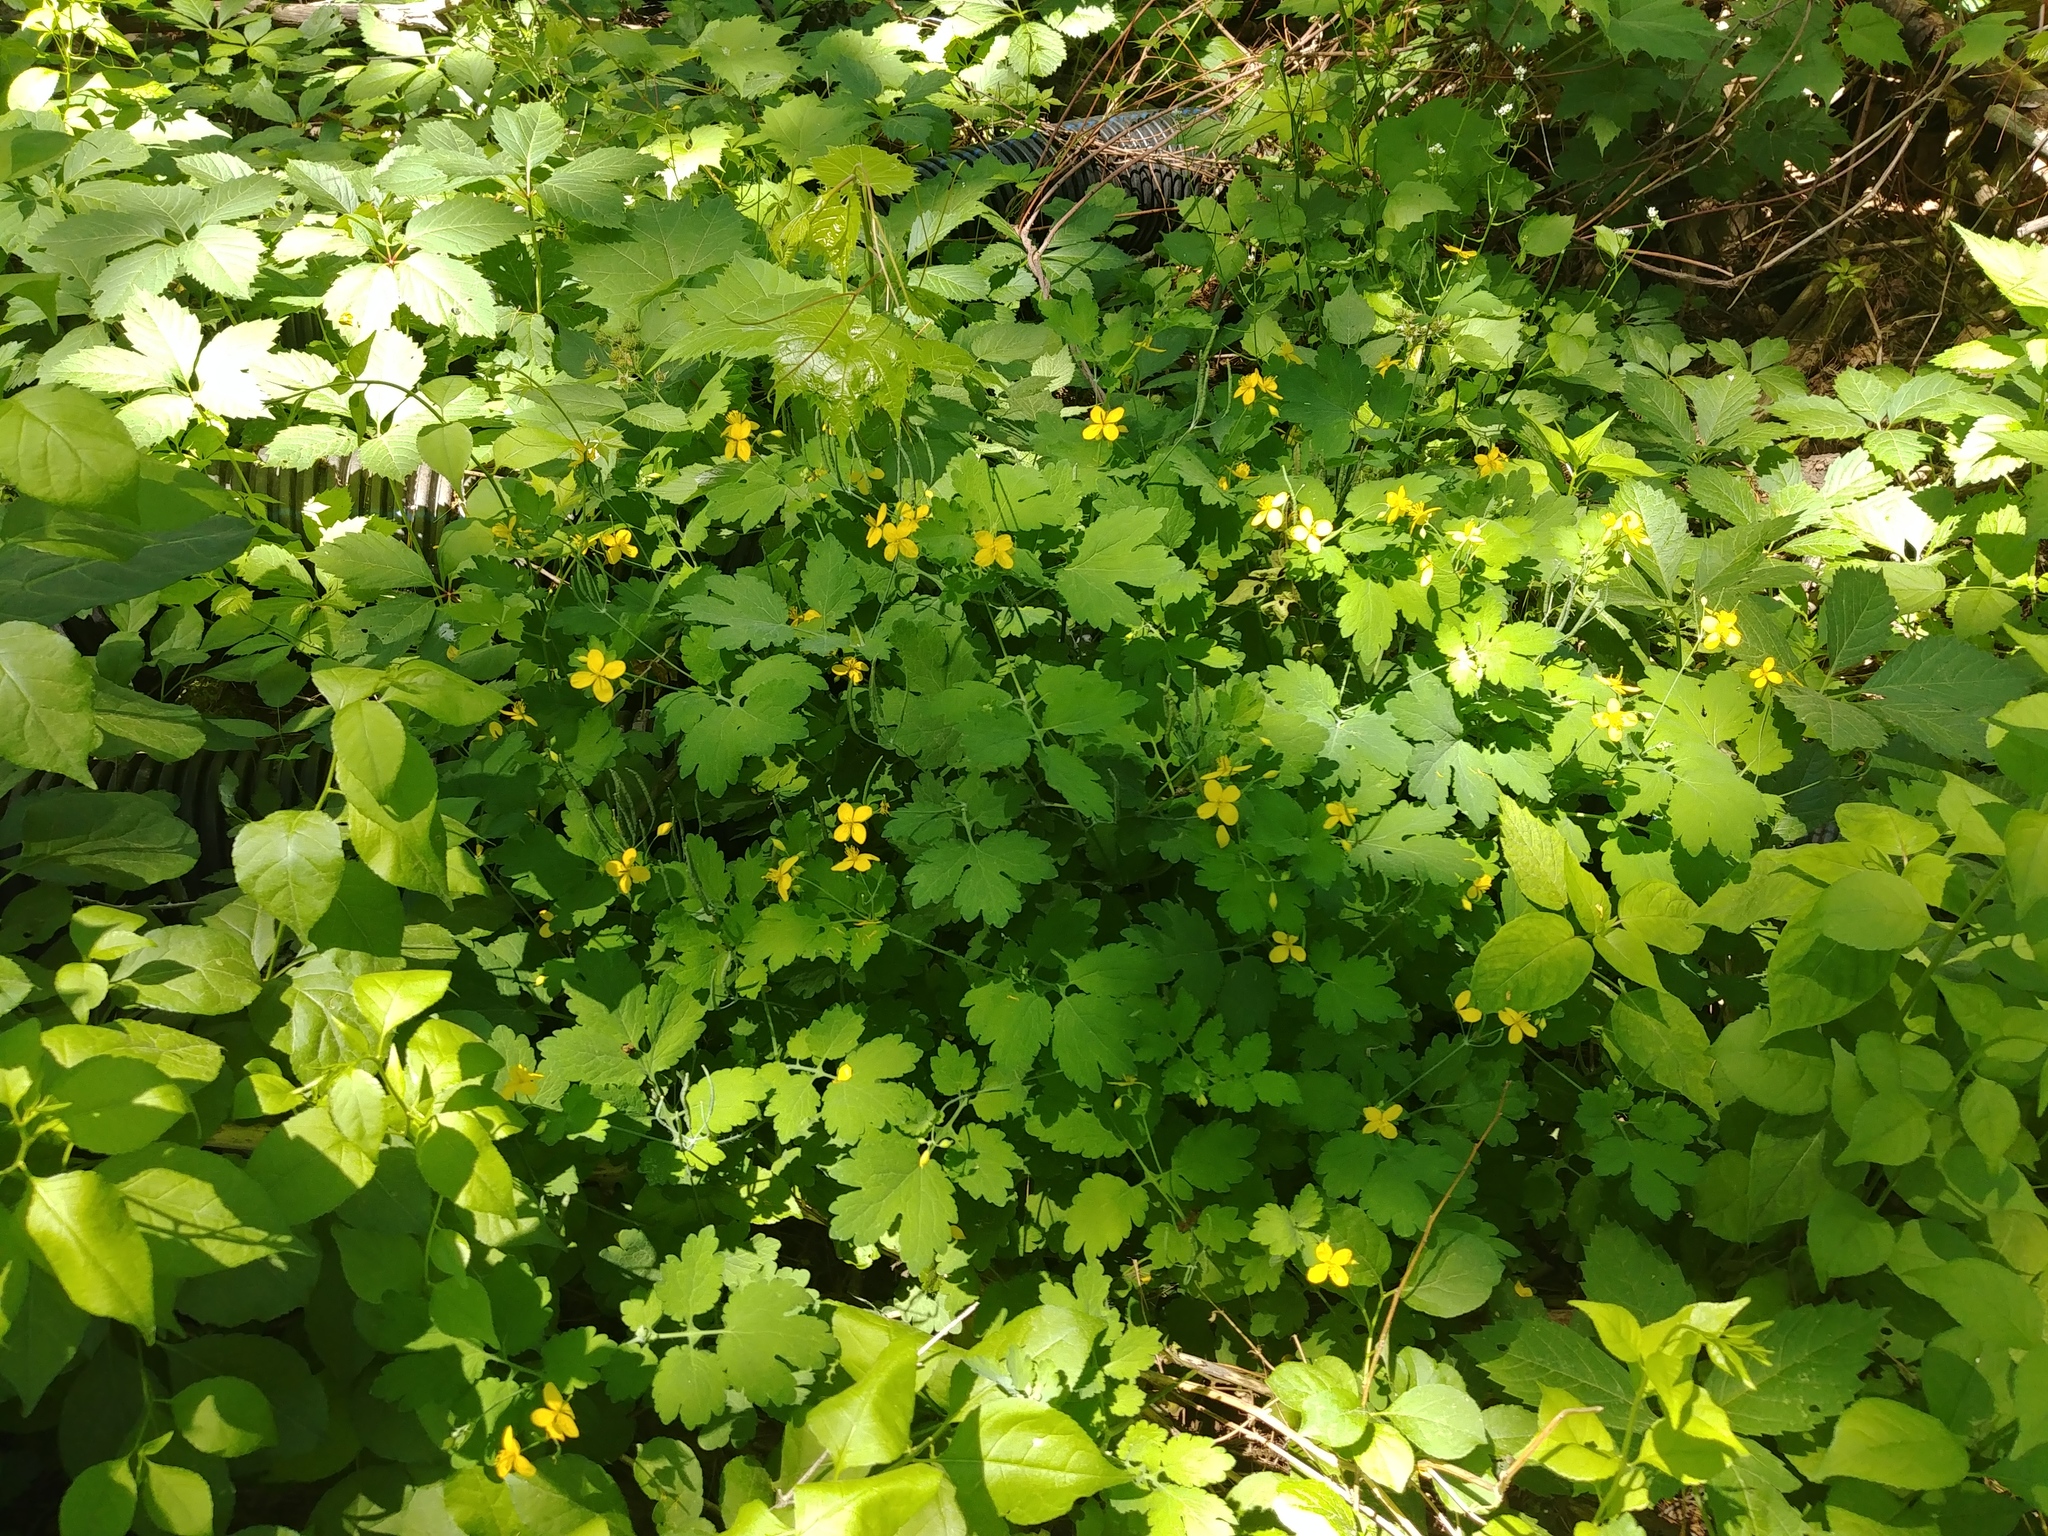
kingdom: Plantae
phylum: Tracheophyta
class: Magnoliopsida
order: Ranunculales
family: Papaveraceae
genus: Chelidonium
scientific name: Chelidonium majus
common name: Greater celandine
